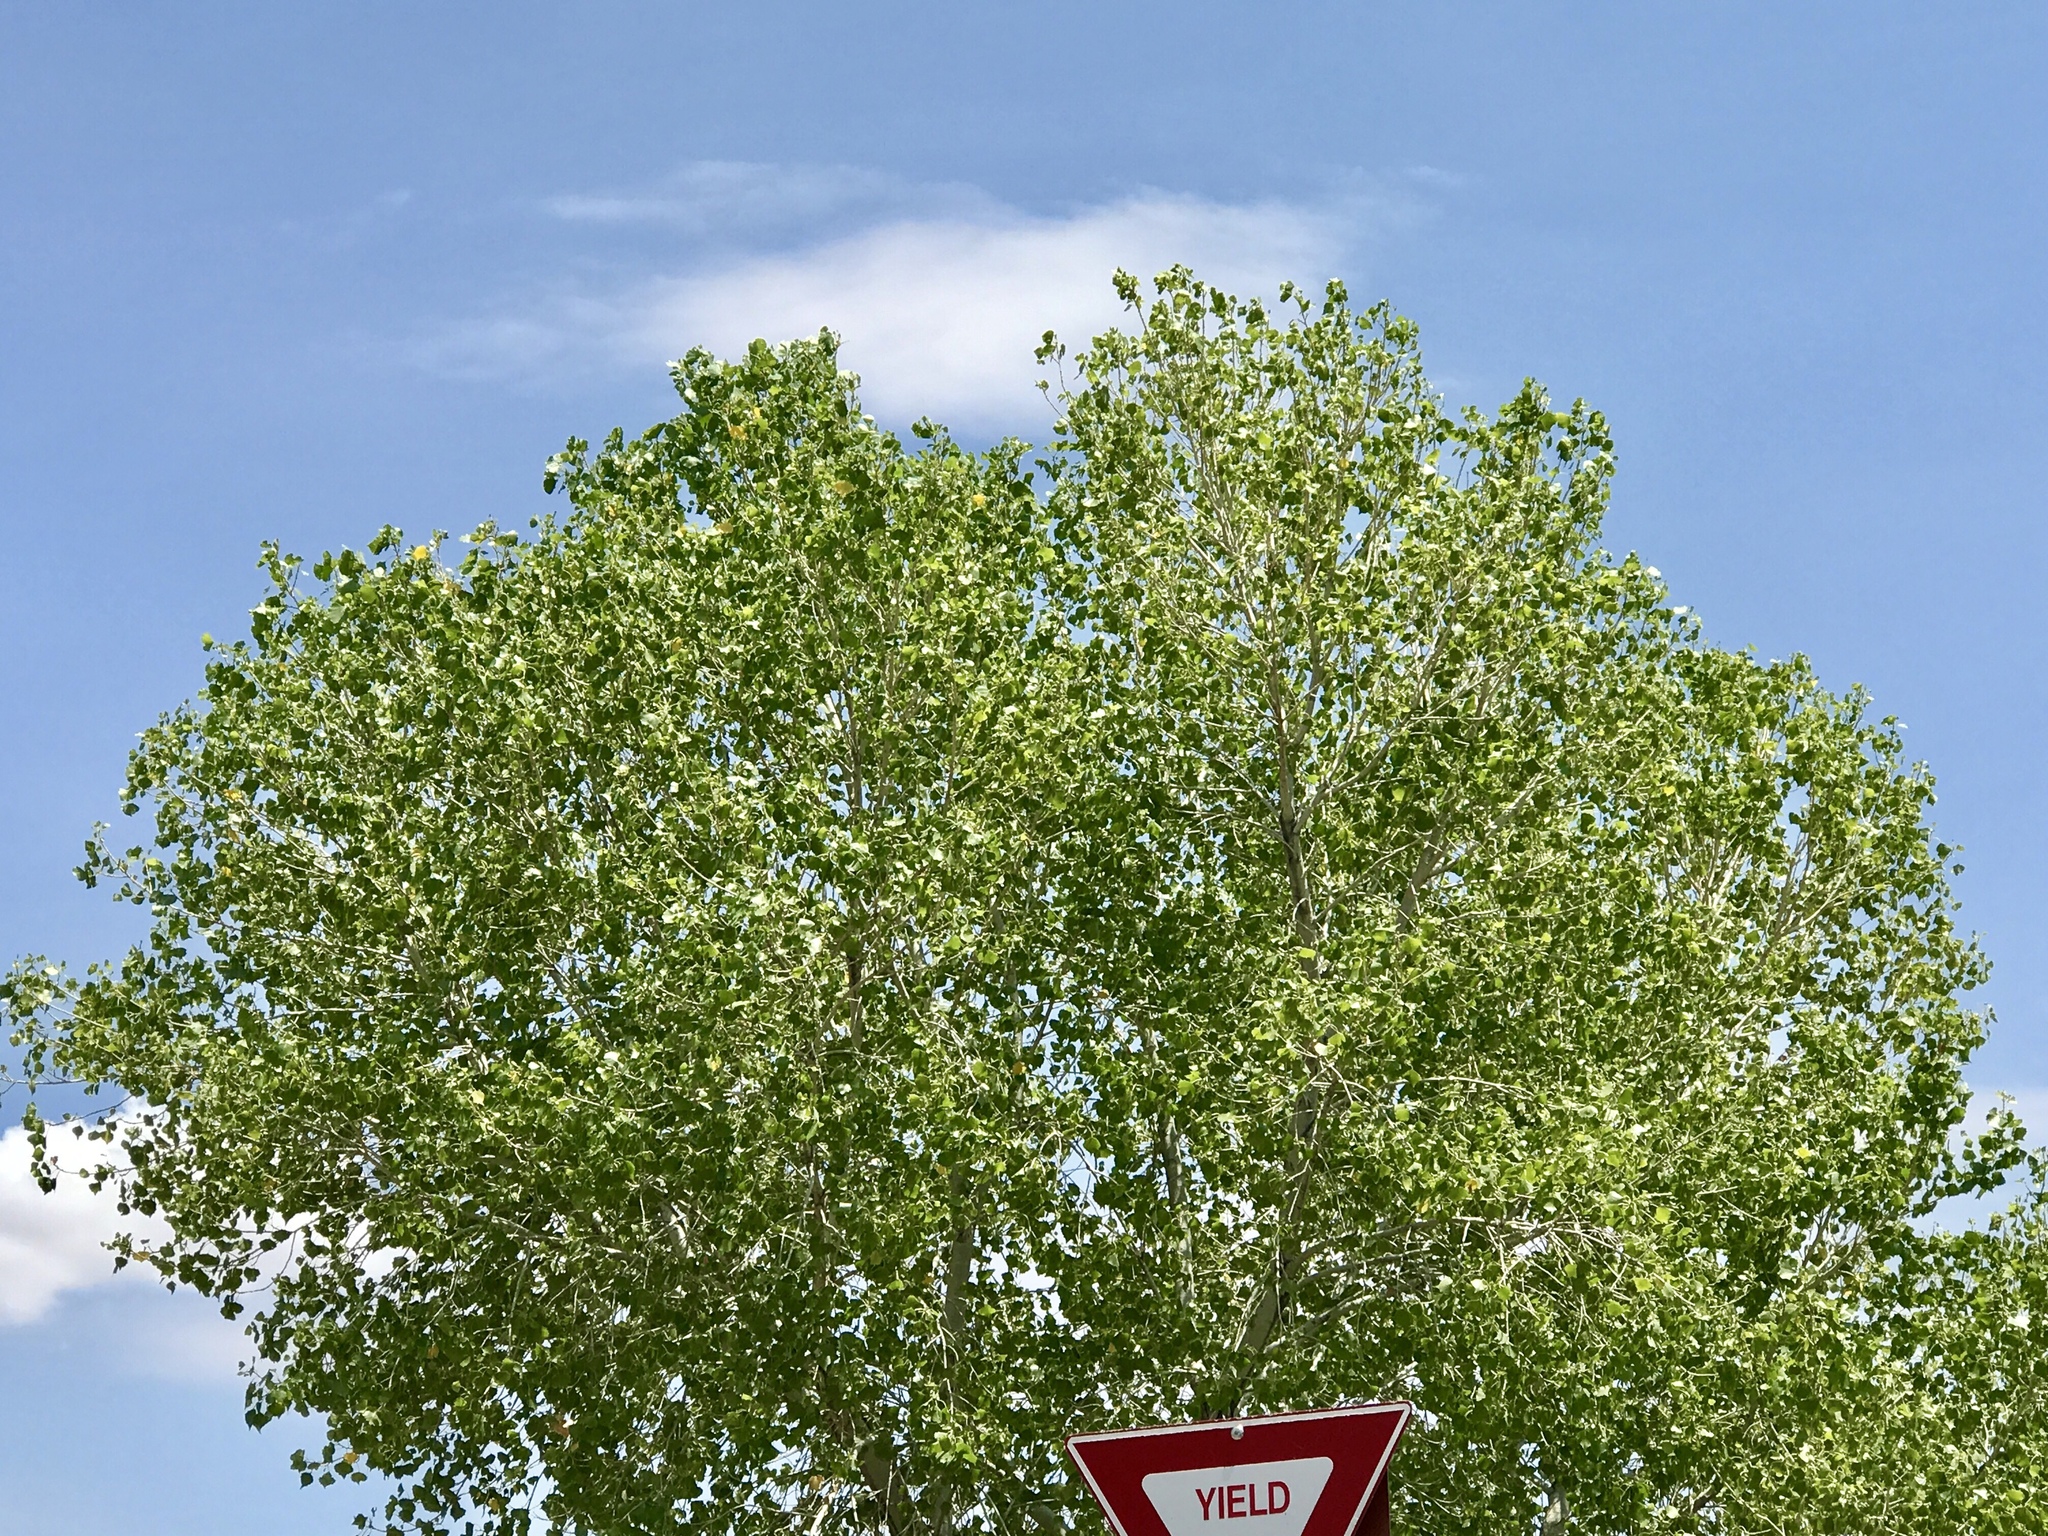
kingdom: Plantae
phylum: Tracheophyta
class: Magnoliopsida
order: Malpighiales
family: Salicaceae
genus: Populus
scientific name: Populus fremontii
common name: Fremont's cottonwood
